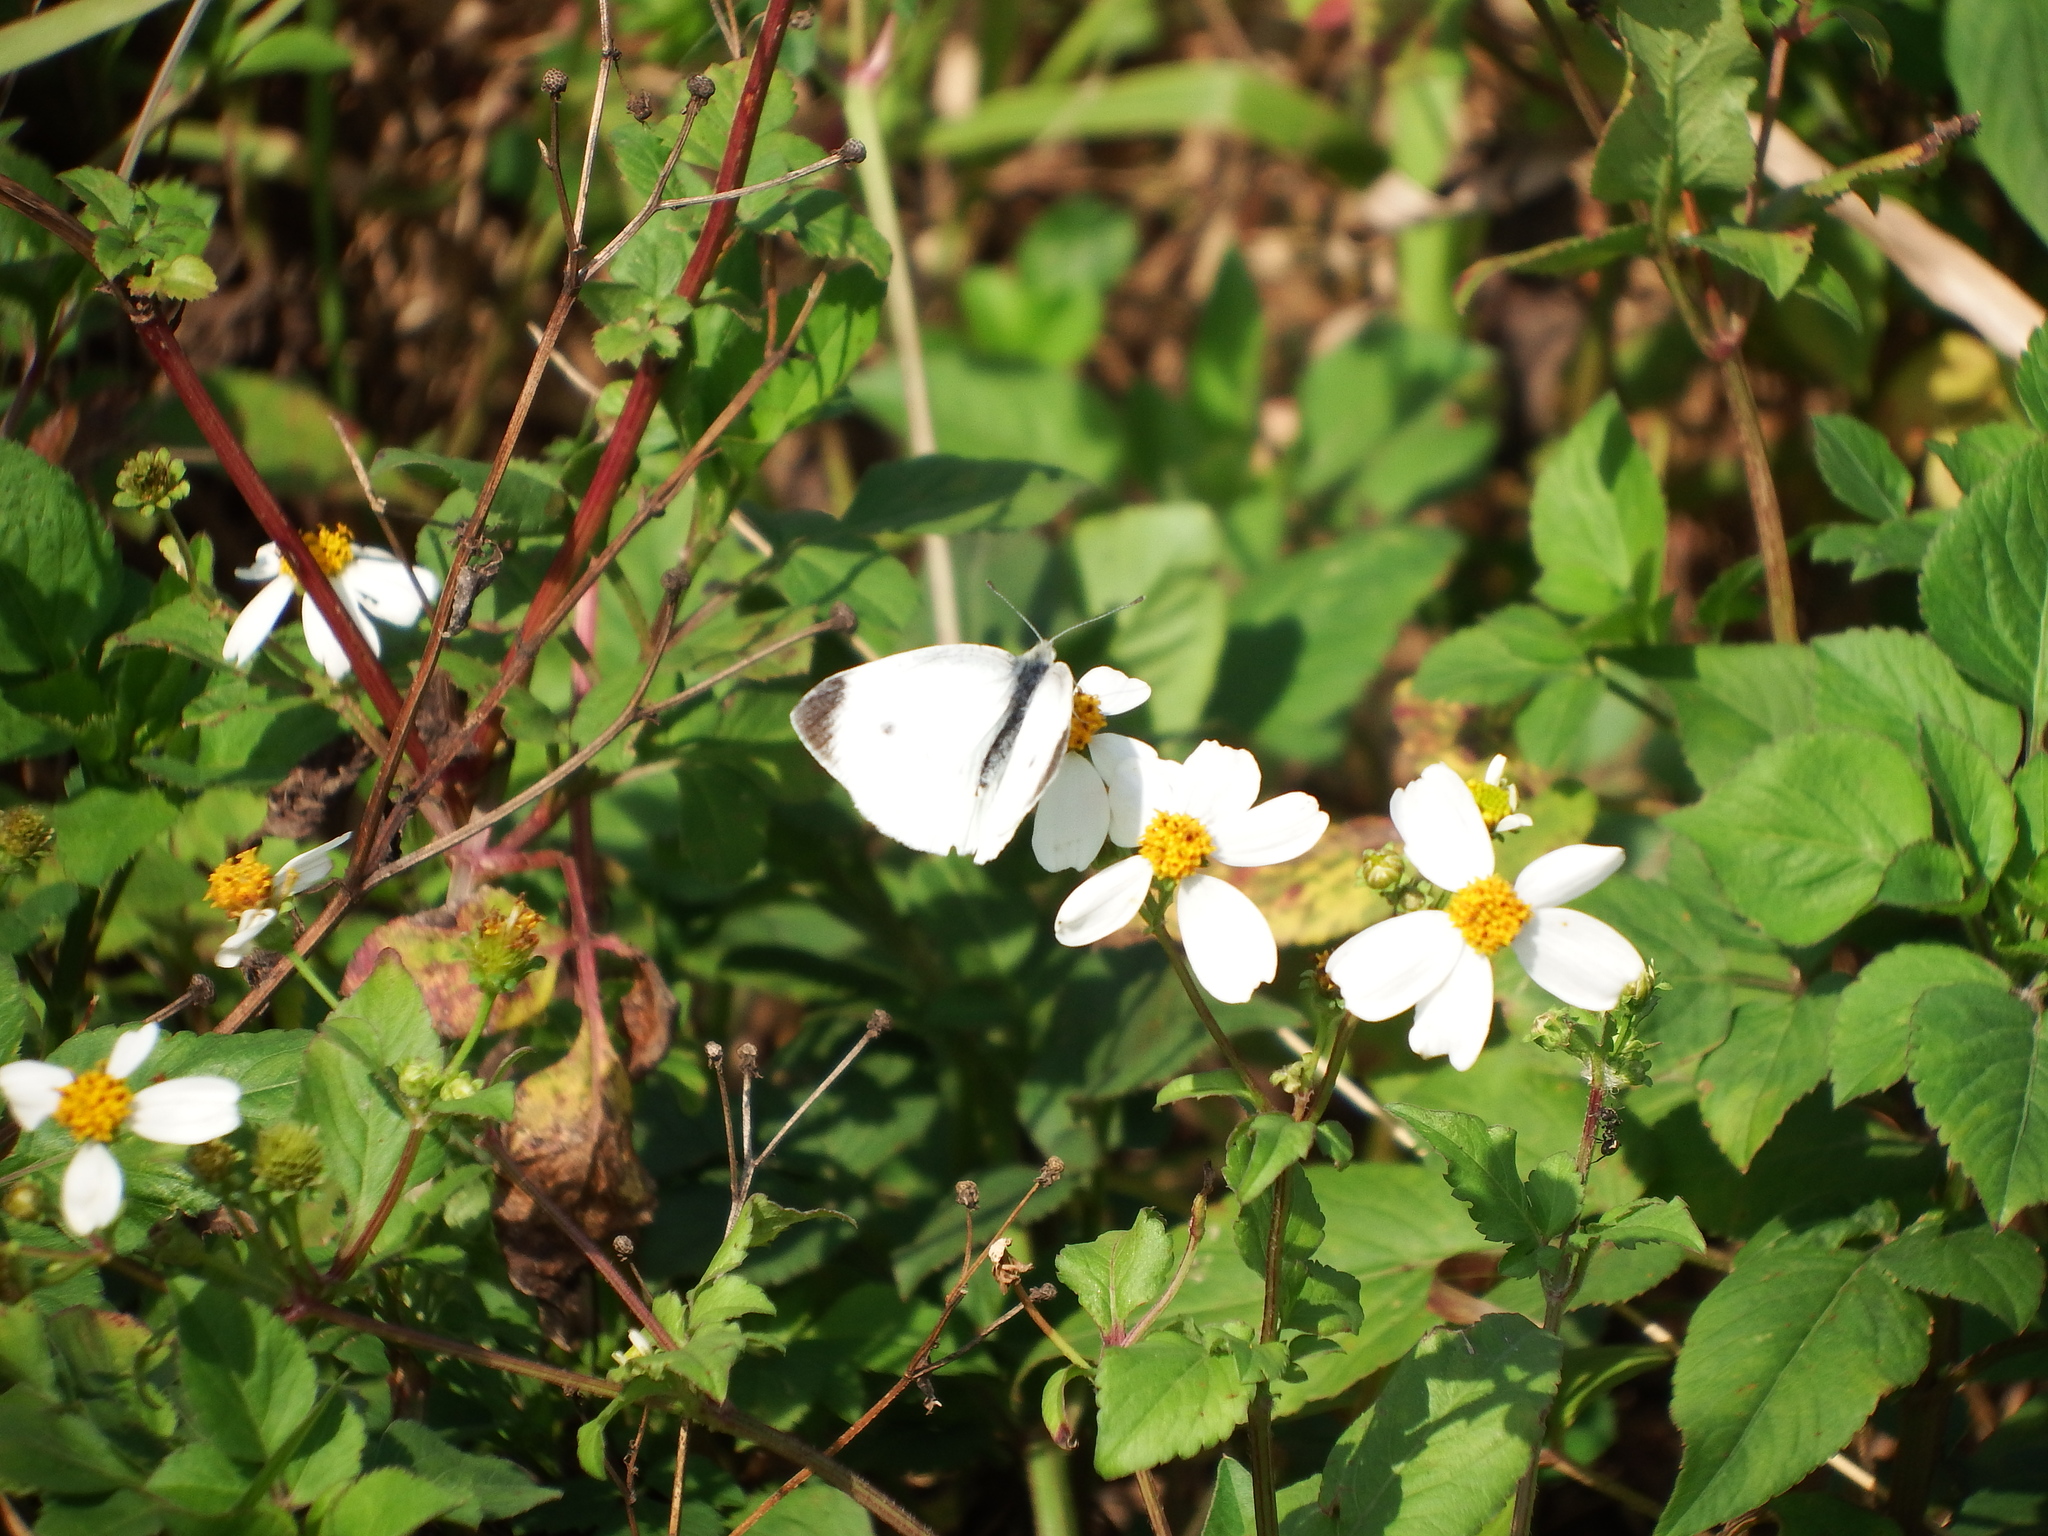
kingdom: Animalia
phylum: Arthropoda
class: Insecta
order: Lepidoptera
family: Pieridae
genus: Pieris
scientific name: Pieris rapae
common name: Small white
